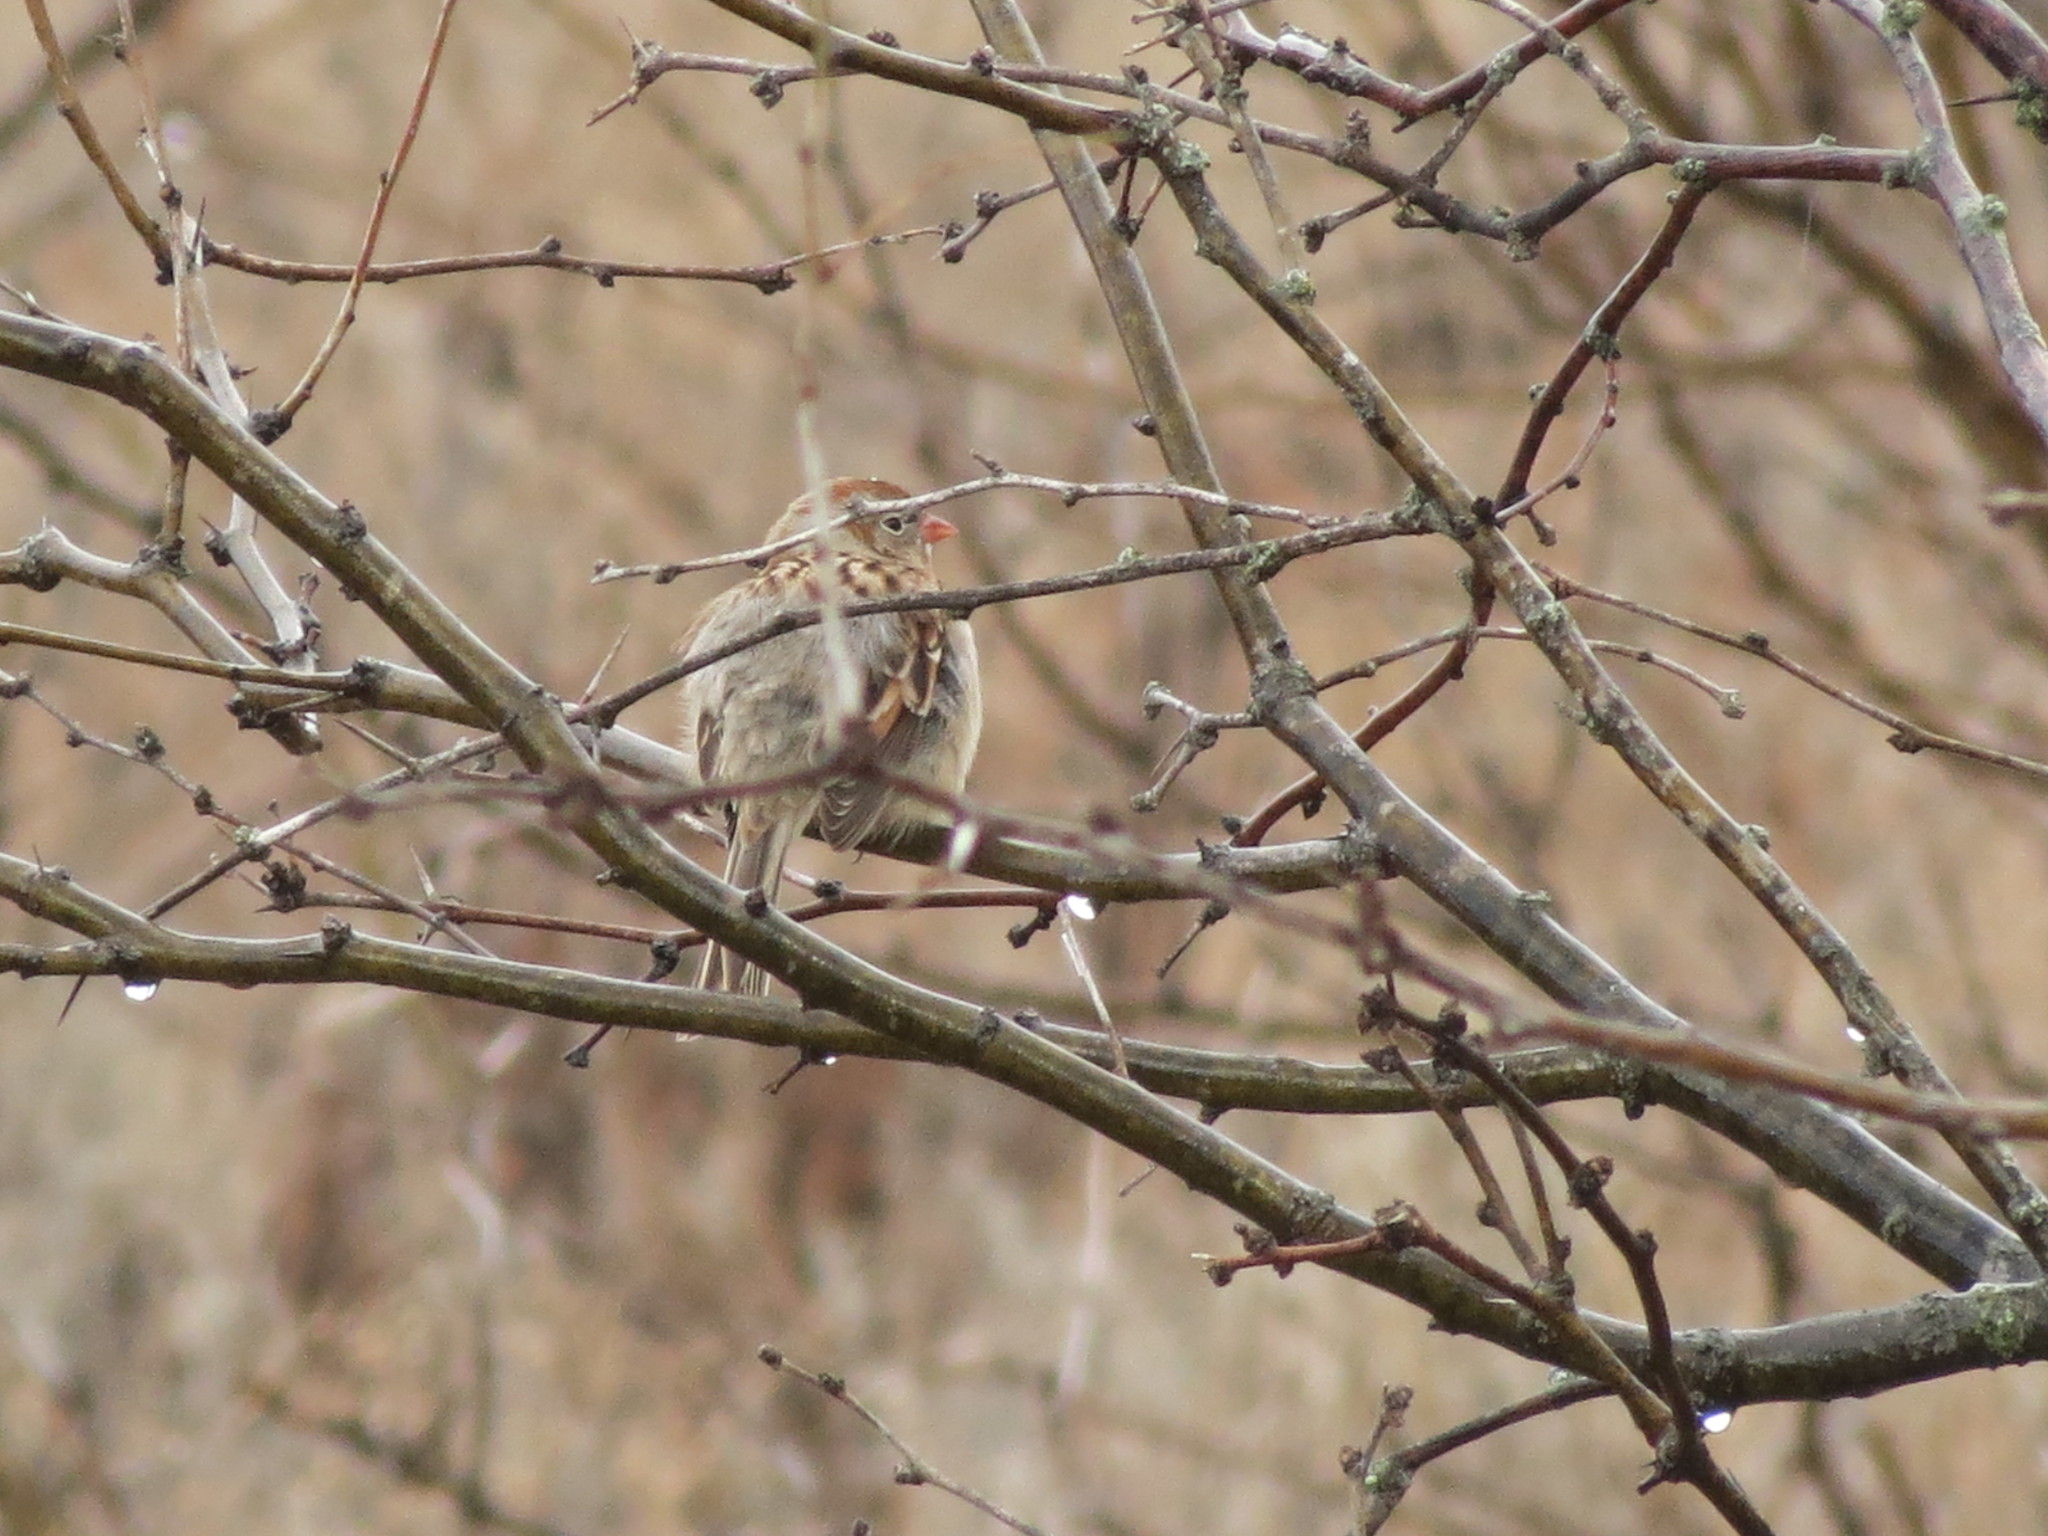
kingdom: Animalia
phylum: Chordata
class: Aves
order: Passeriformes
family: Passerellidae
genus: Spizella
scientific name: Spizella pusilla
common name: Field sparrow
